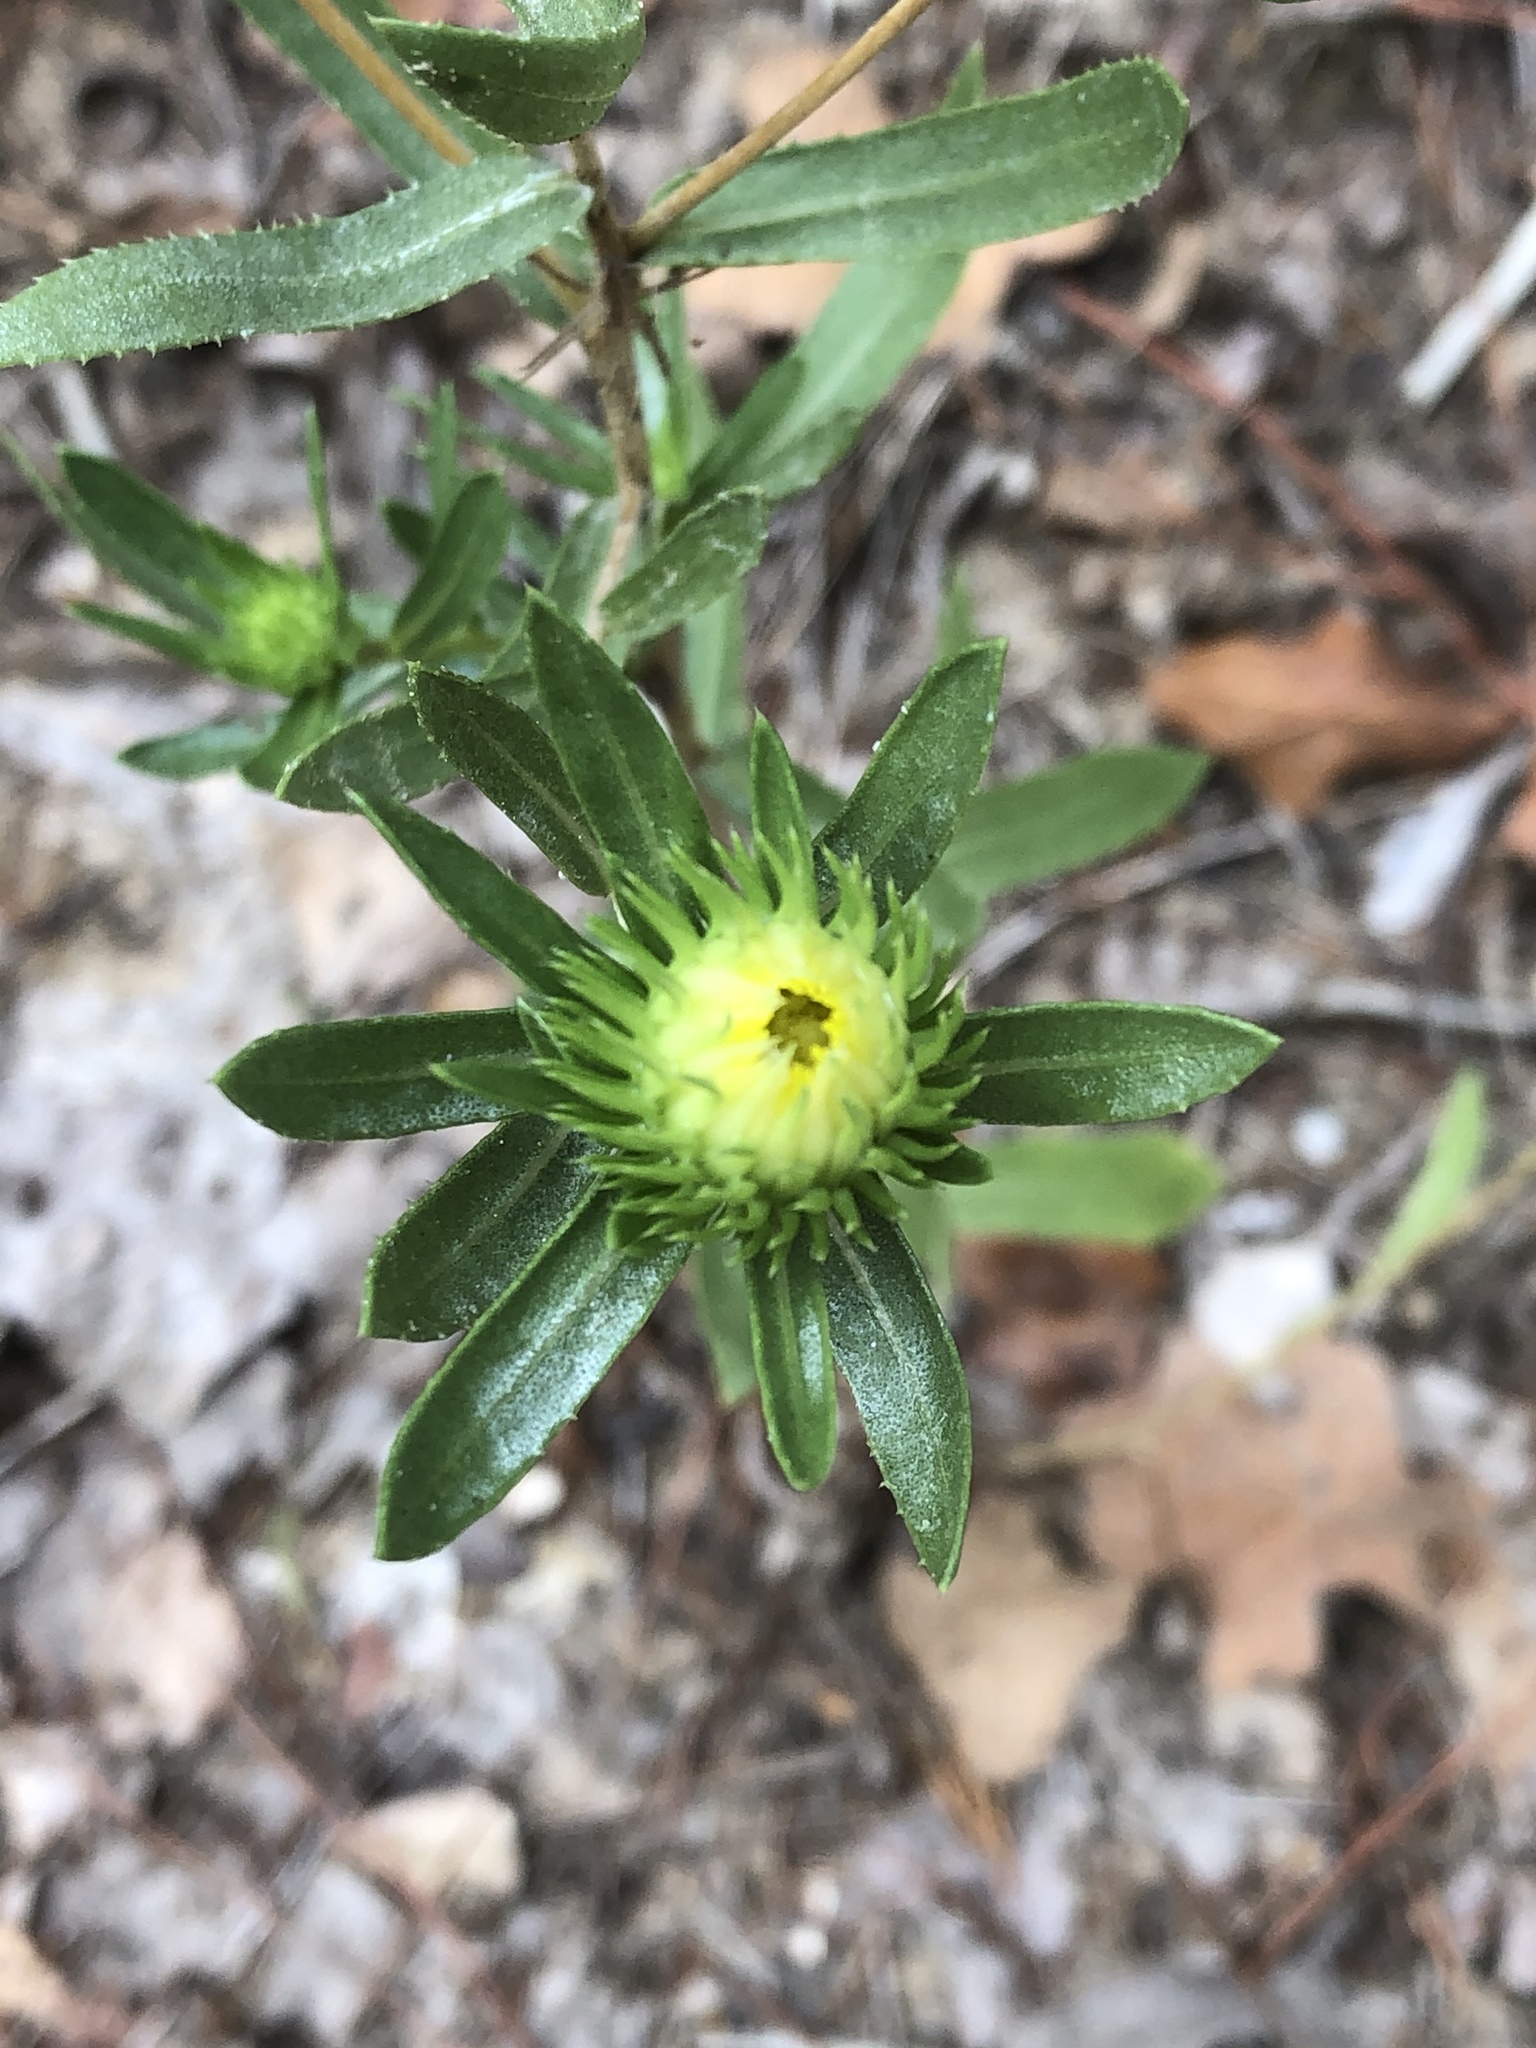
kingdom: Plantae
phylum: Tracheophyta
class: Magnoliopsida
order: Asterales
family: Asteraceae
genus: Grindelia
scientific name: Grindelia lanceolata
